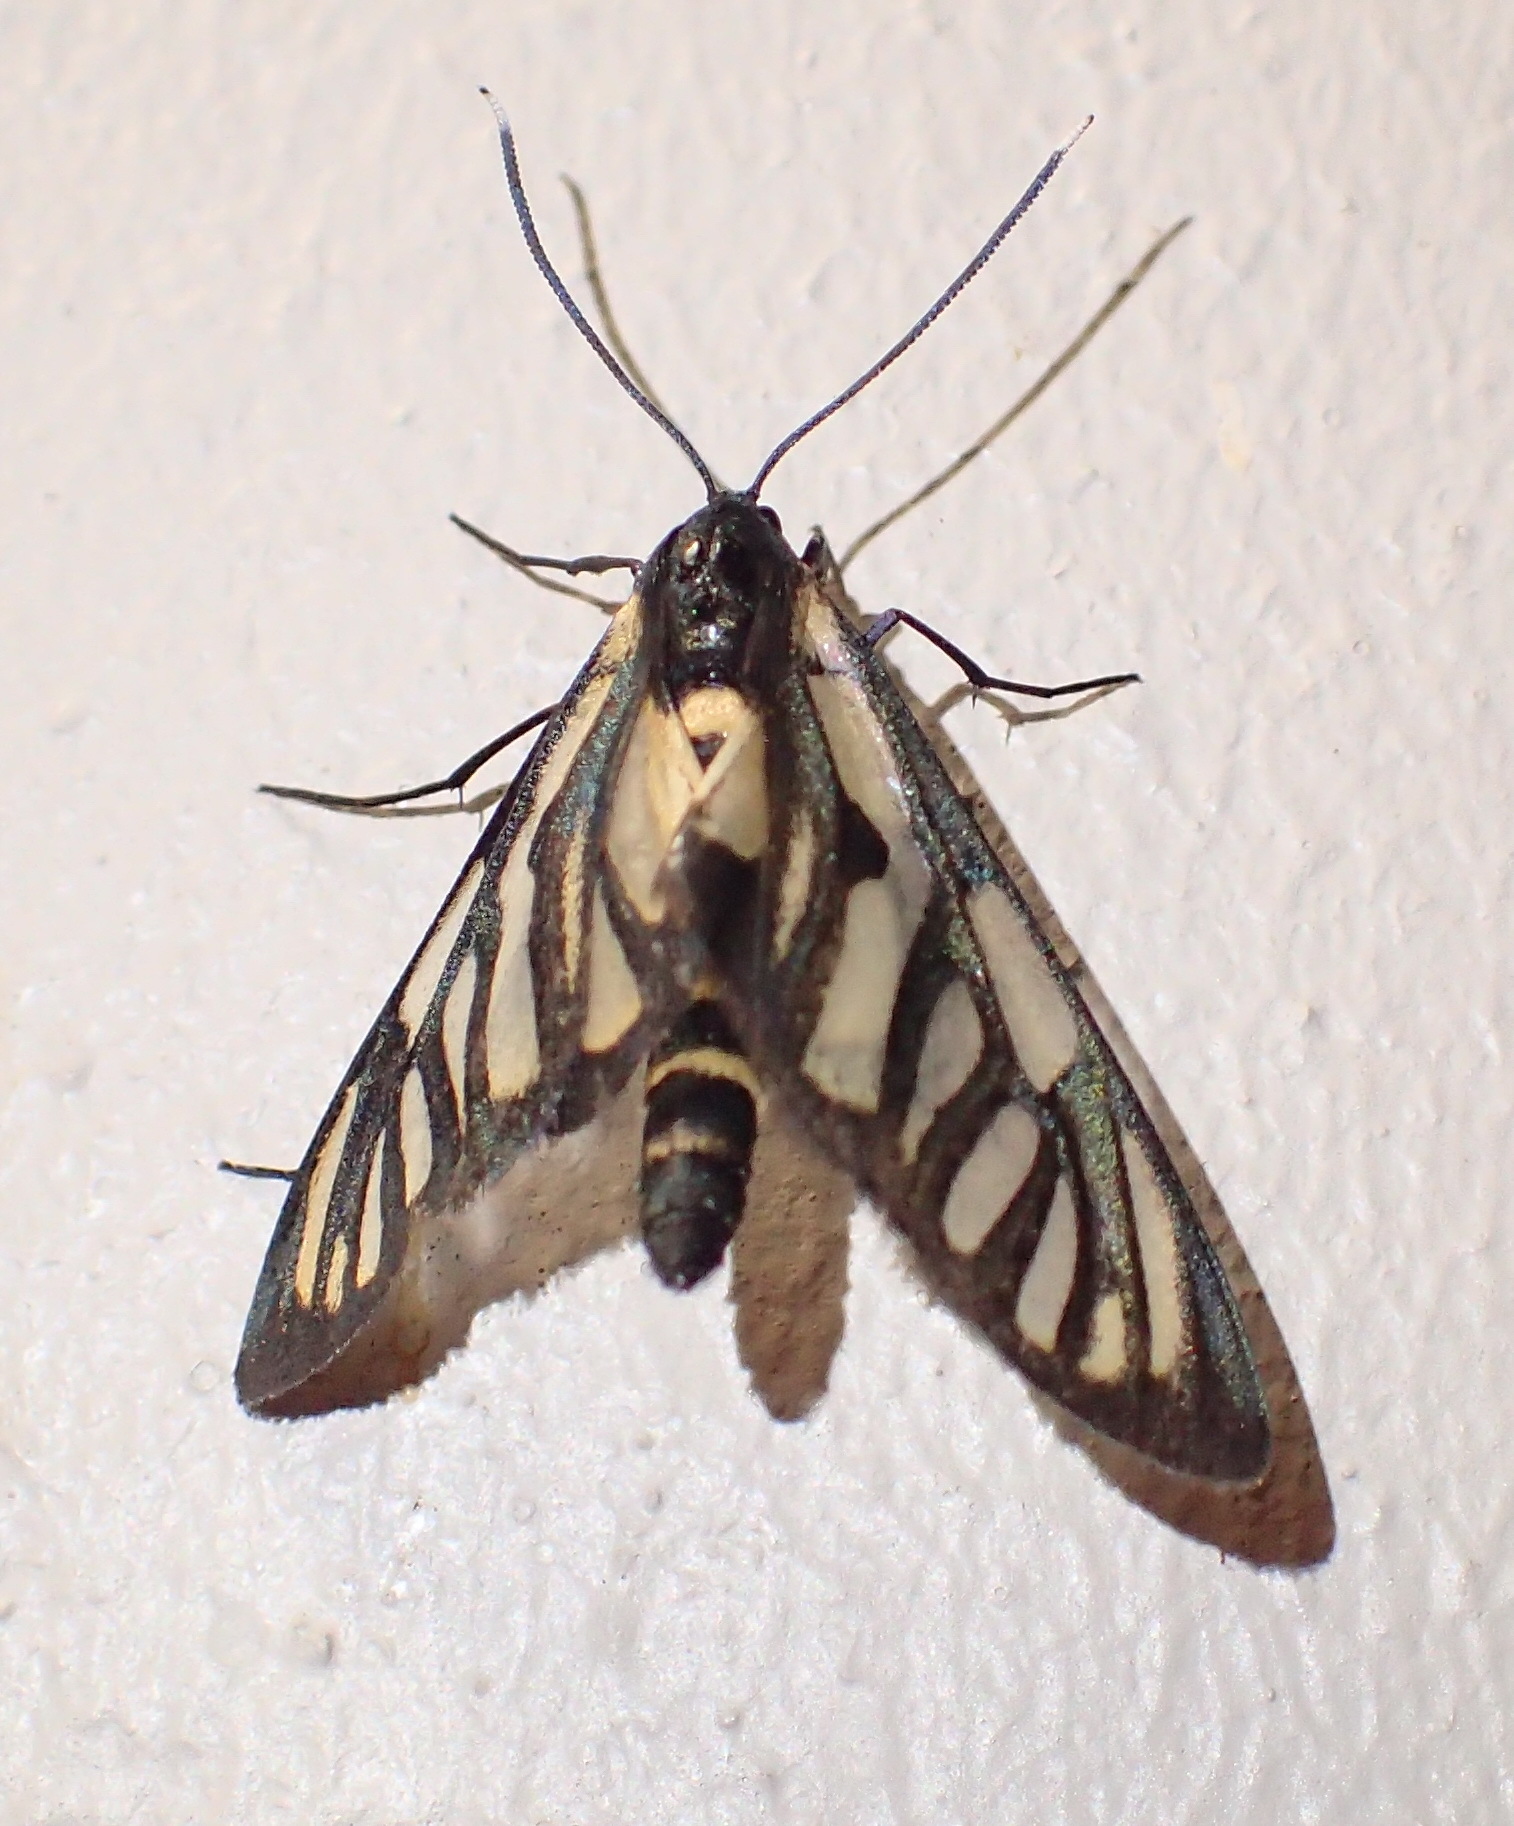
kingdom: Animalia
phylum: Arthropoda
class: Insecta
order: Lepidoptera
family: Erebidae
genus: Amata
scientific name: Amata polidamon
